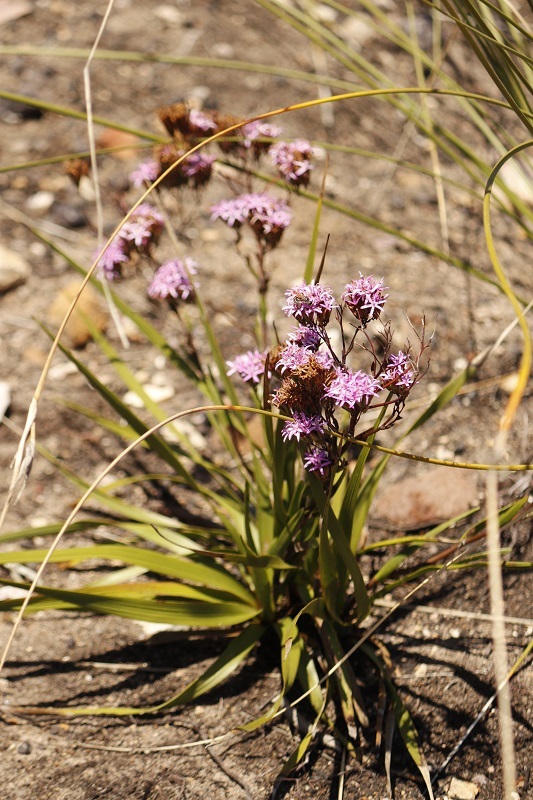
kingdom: Plantae
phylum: Tracheophyta
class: Magnoliopsida
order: Asterales
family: Asteraceae
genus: Corymbium
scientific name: Corymbium glabrum
